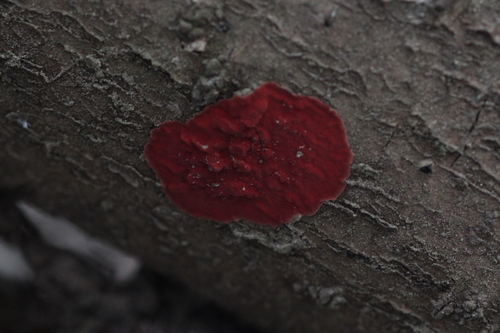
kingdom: Fungi
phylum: Basidiomycota
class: Agaricomycetes
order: Hymenochaetales
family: Hymenochaetaceae
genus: Hymenochaete
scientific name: Hymenochaete cruenta
